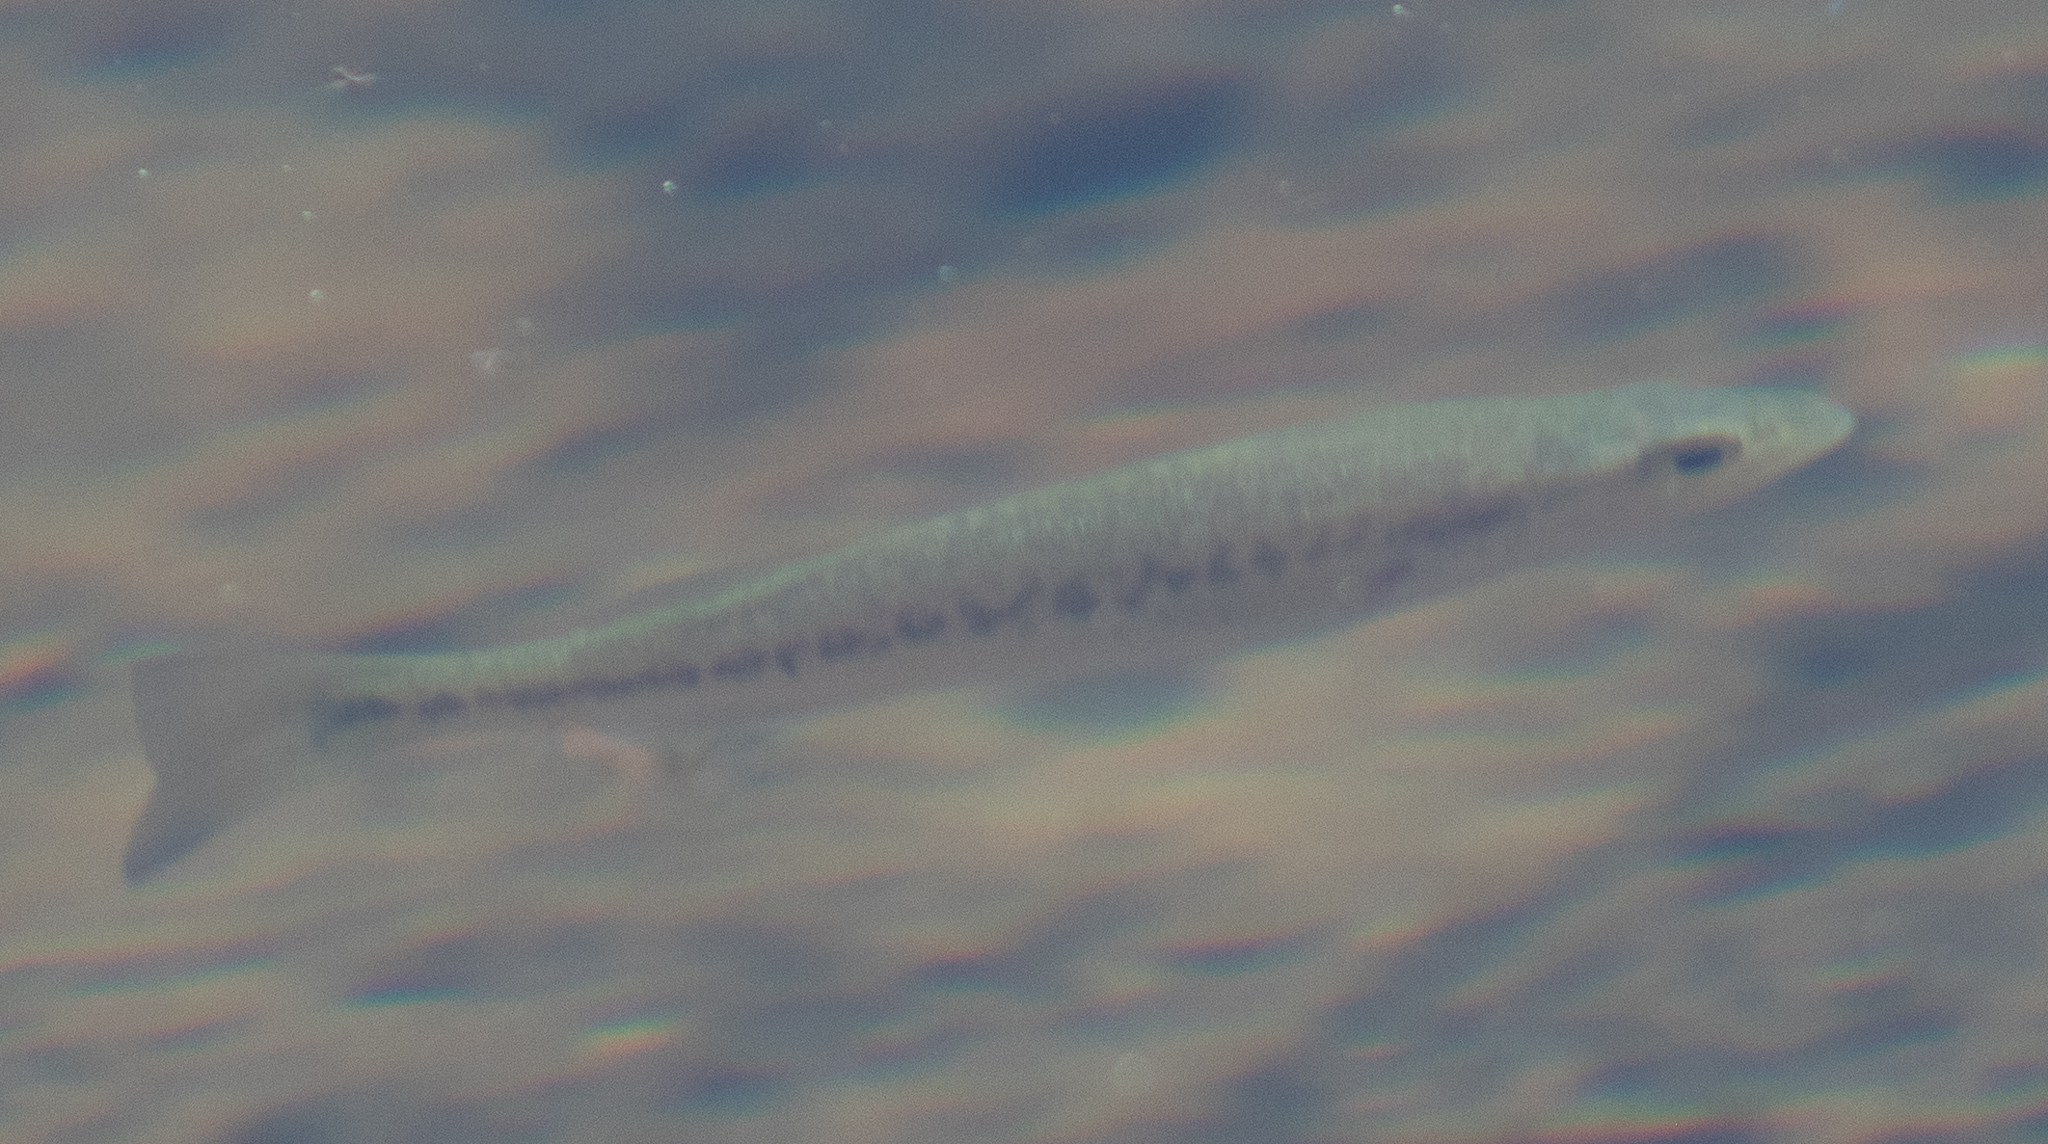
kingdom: Animalia
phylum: Chordata
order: Perciformes
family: Centrarchidae
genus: Micropterus
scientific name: Micropterus
